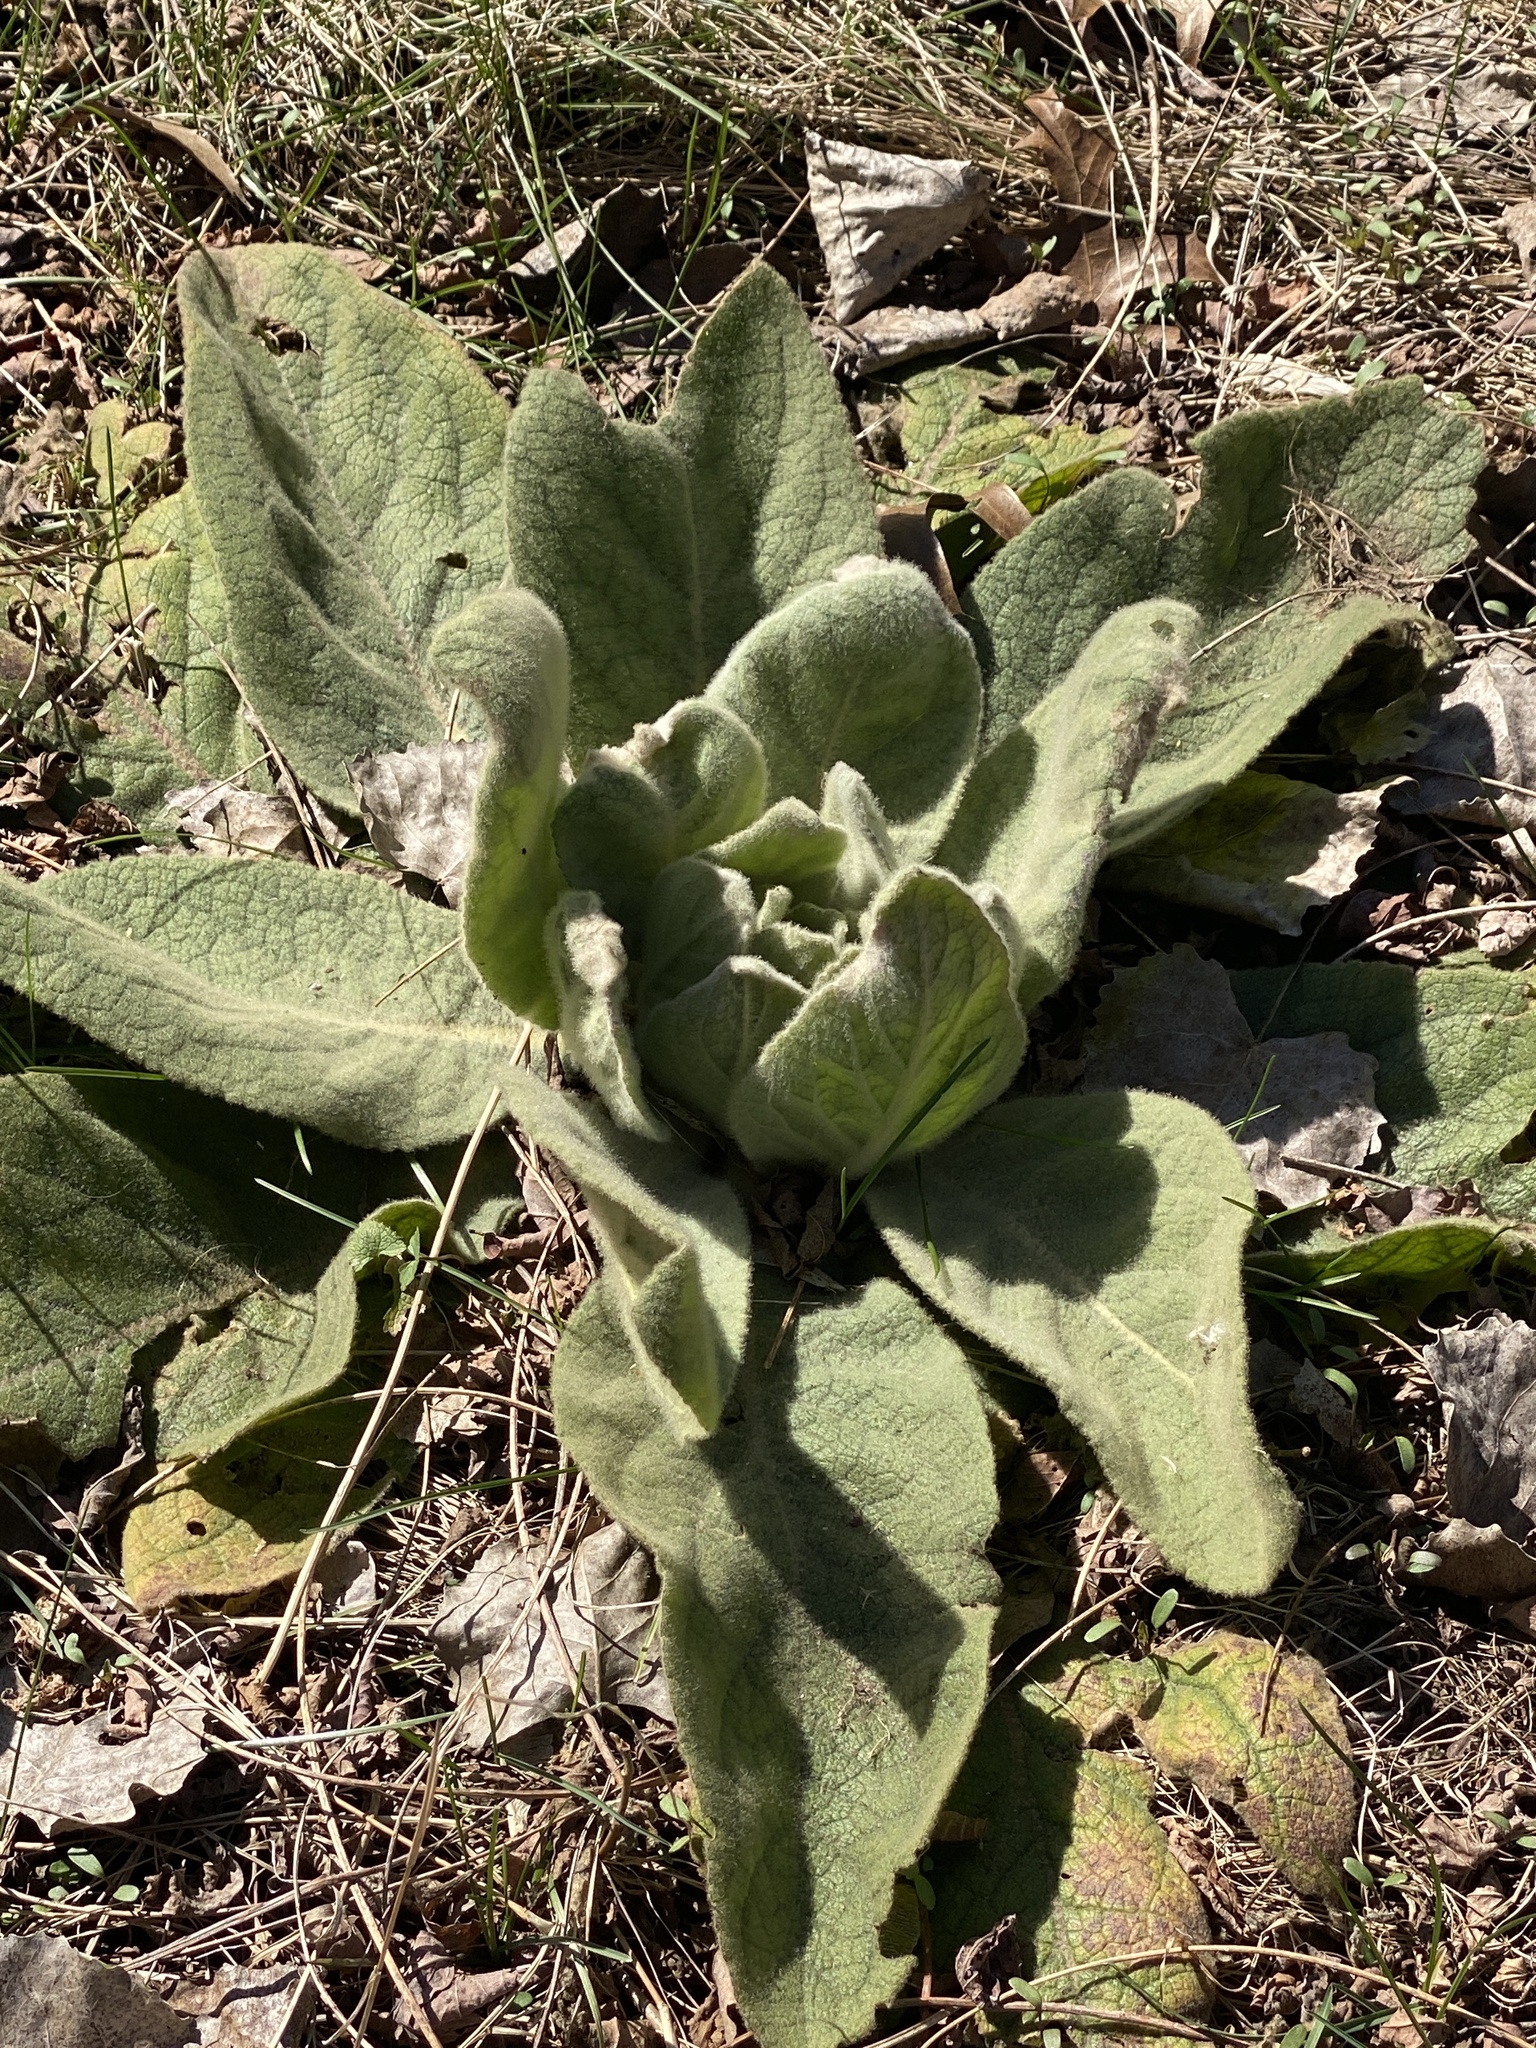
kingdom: Plantae
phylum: Tracheophyta
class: Magnoliopsida
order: Lamiales
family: Scrophulariaceae
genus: Verbascum
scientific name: Verbascum thapsus
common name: Common mullein
